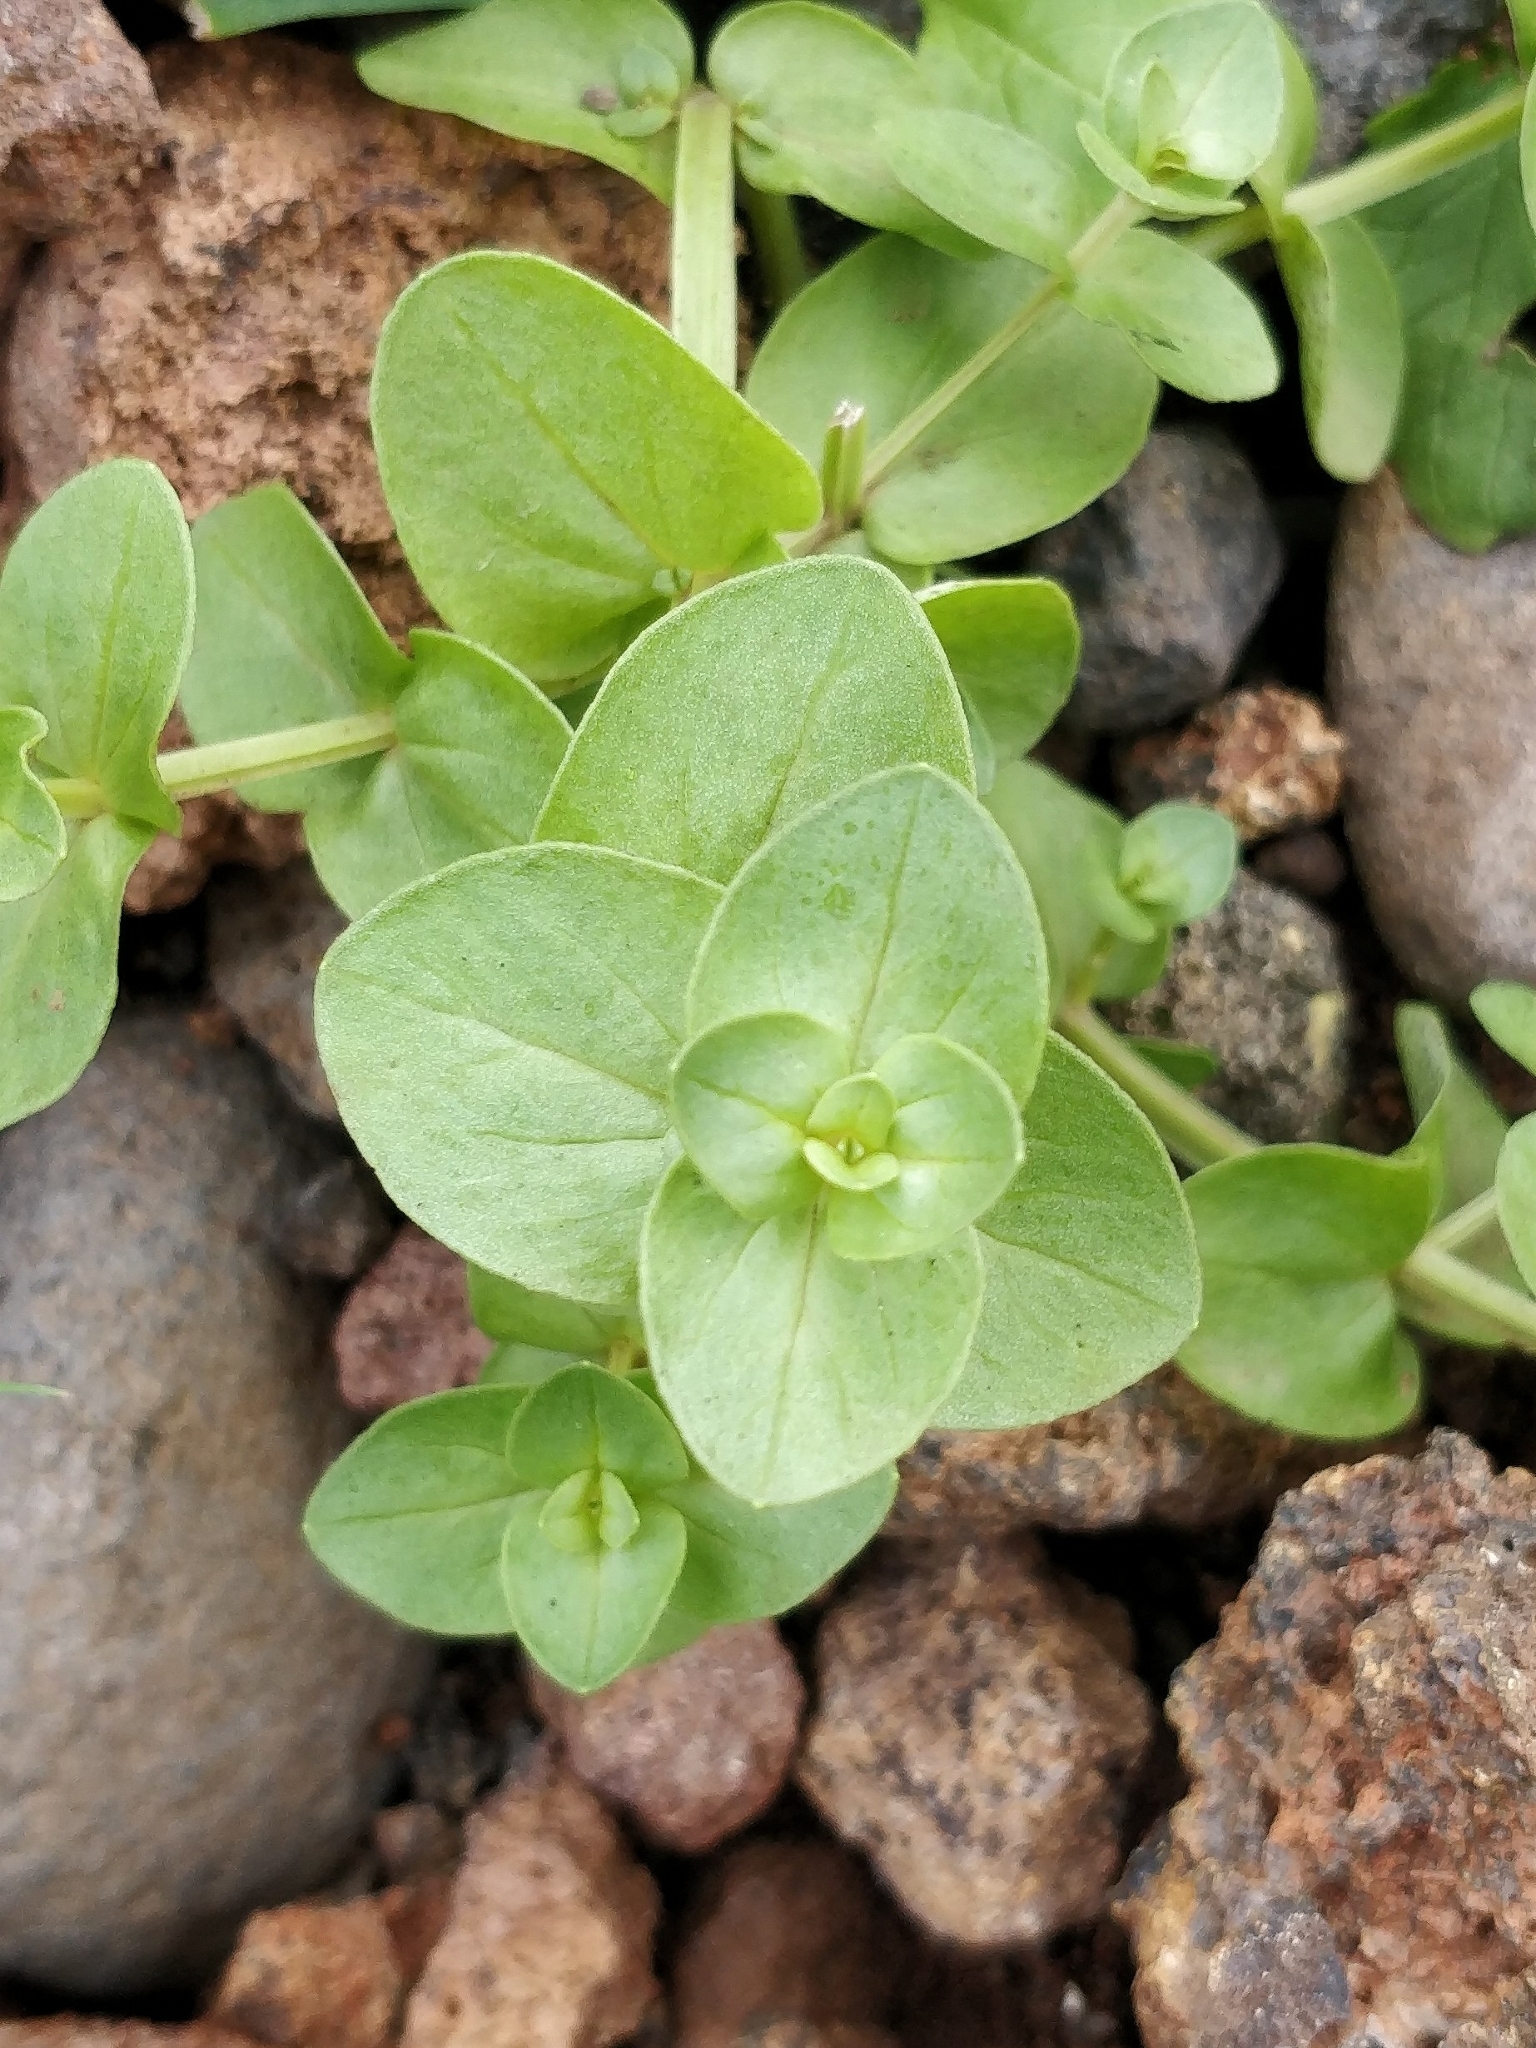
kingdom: Plantae
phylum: Tracheophyta
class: Magnoliopsida
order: Ericales
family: Primulaceae
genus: Lysimachia
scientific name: Lysimachia arvensis
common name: Scarlet pimpernel
